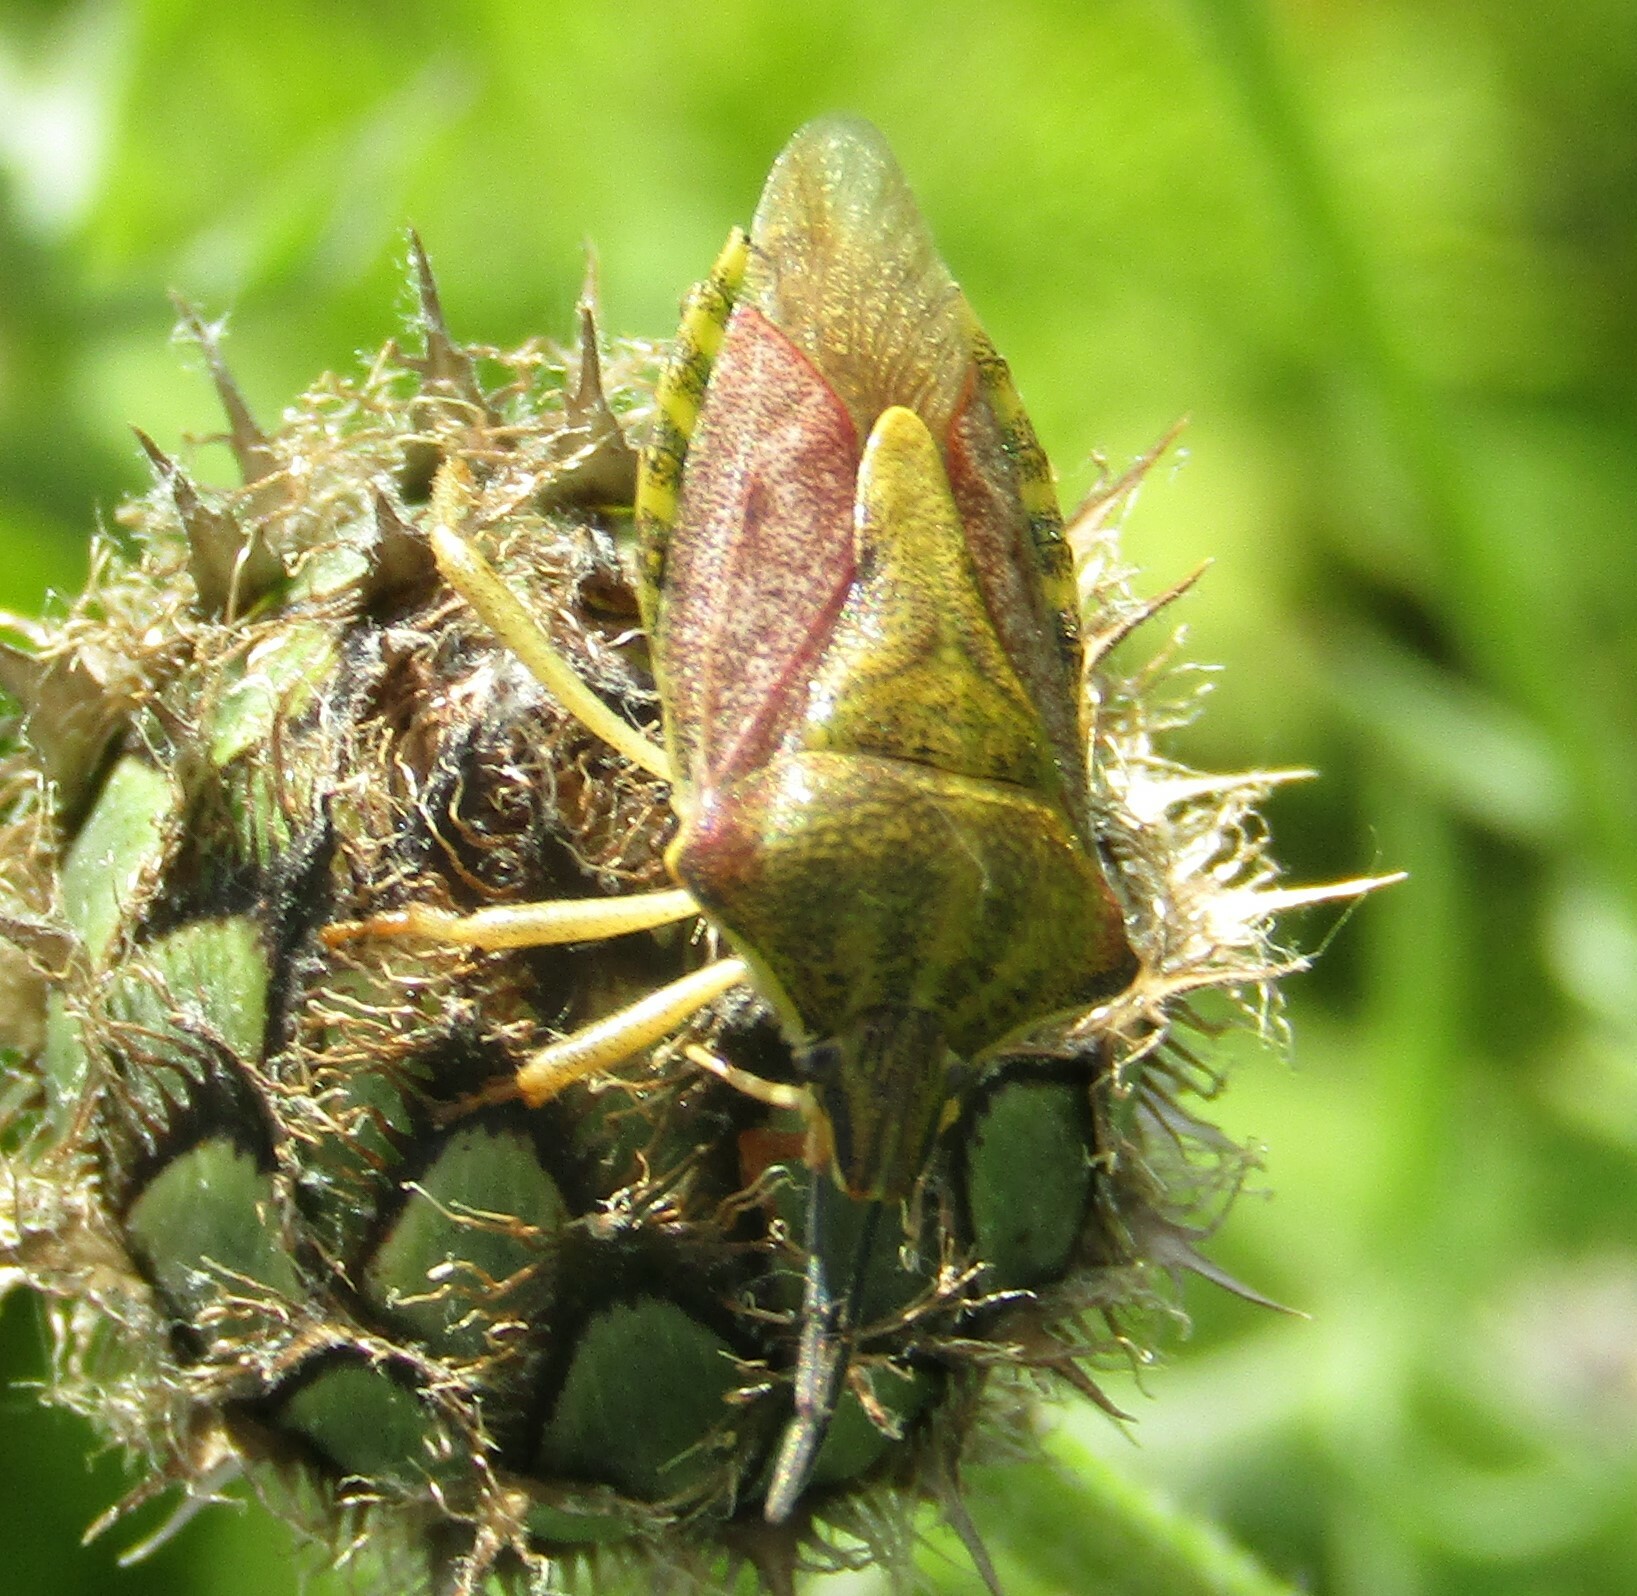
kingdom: Animalia
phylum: Arthropoda
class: Insecta
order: Hemiptera
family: Pentatomidae
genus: Carpocoris
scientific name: Carpocoris purpureipennis
